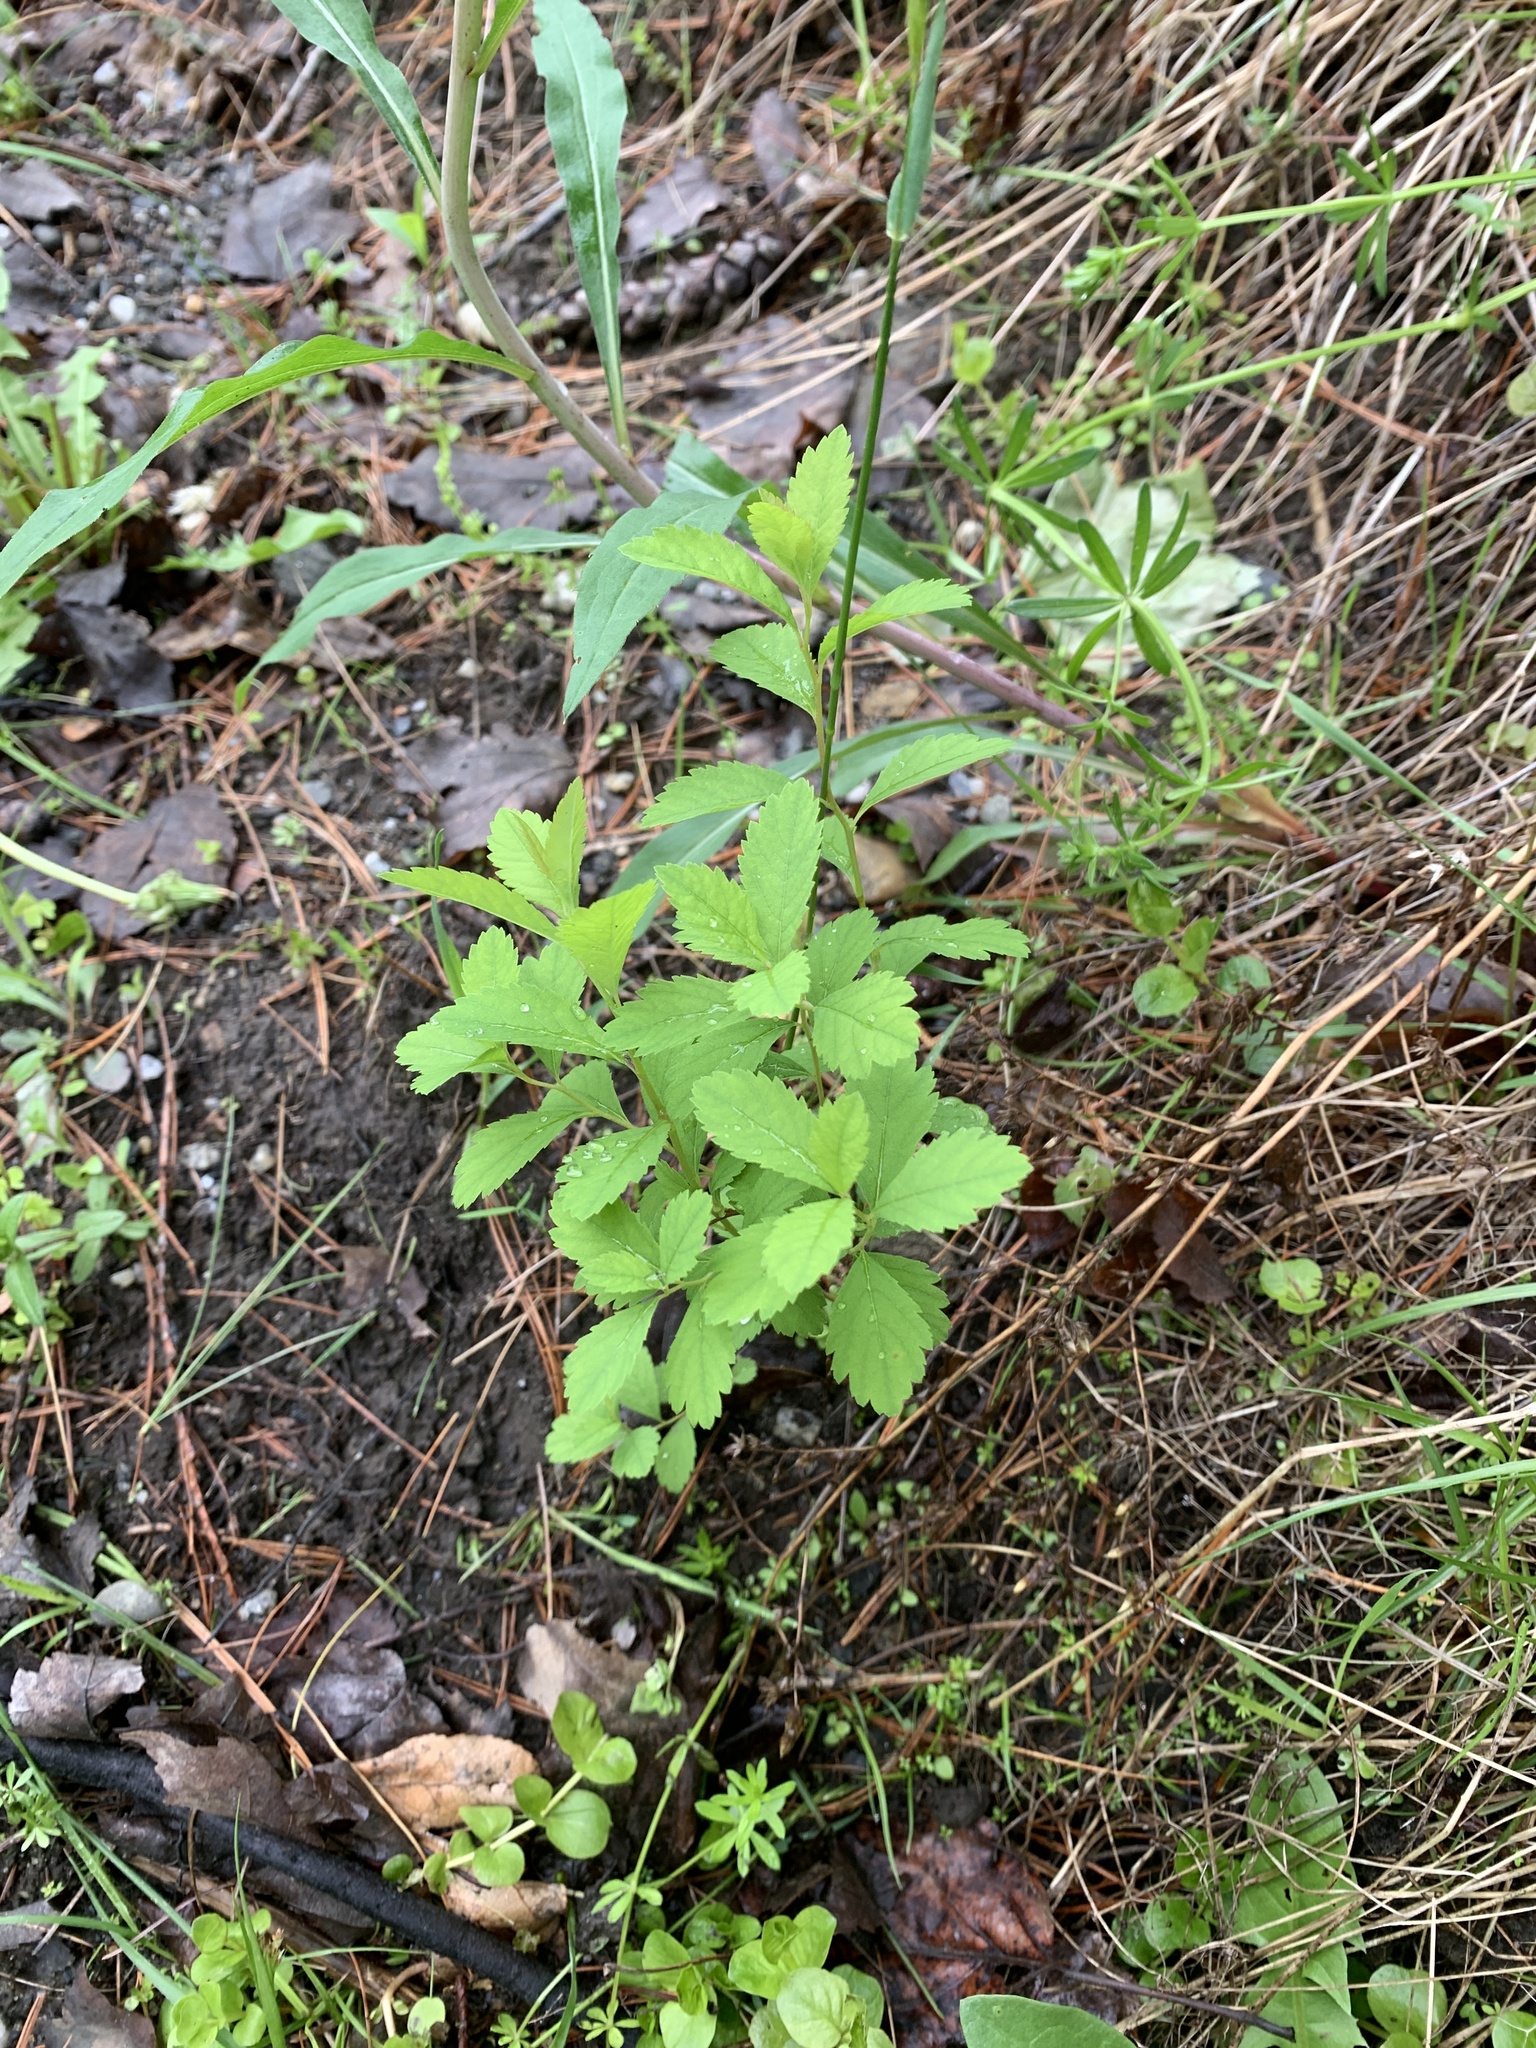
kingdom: Plantae
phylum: Tracheophyta
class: Magnoliopsida
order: Rosales
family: Rosaceae
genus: Spiraea
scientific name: Spiraea alba
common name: Pale bridewort
